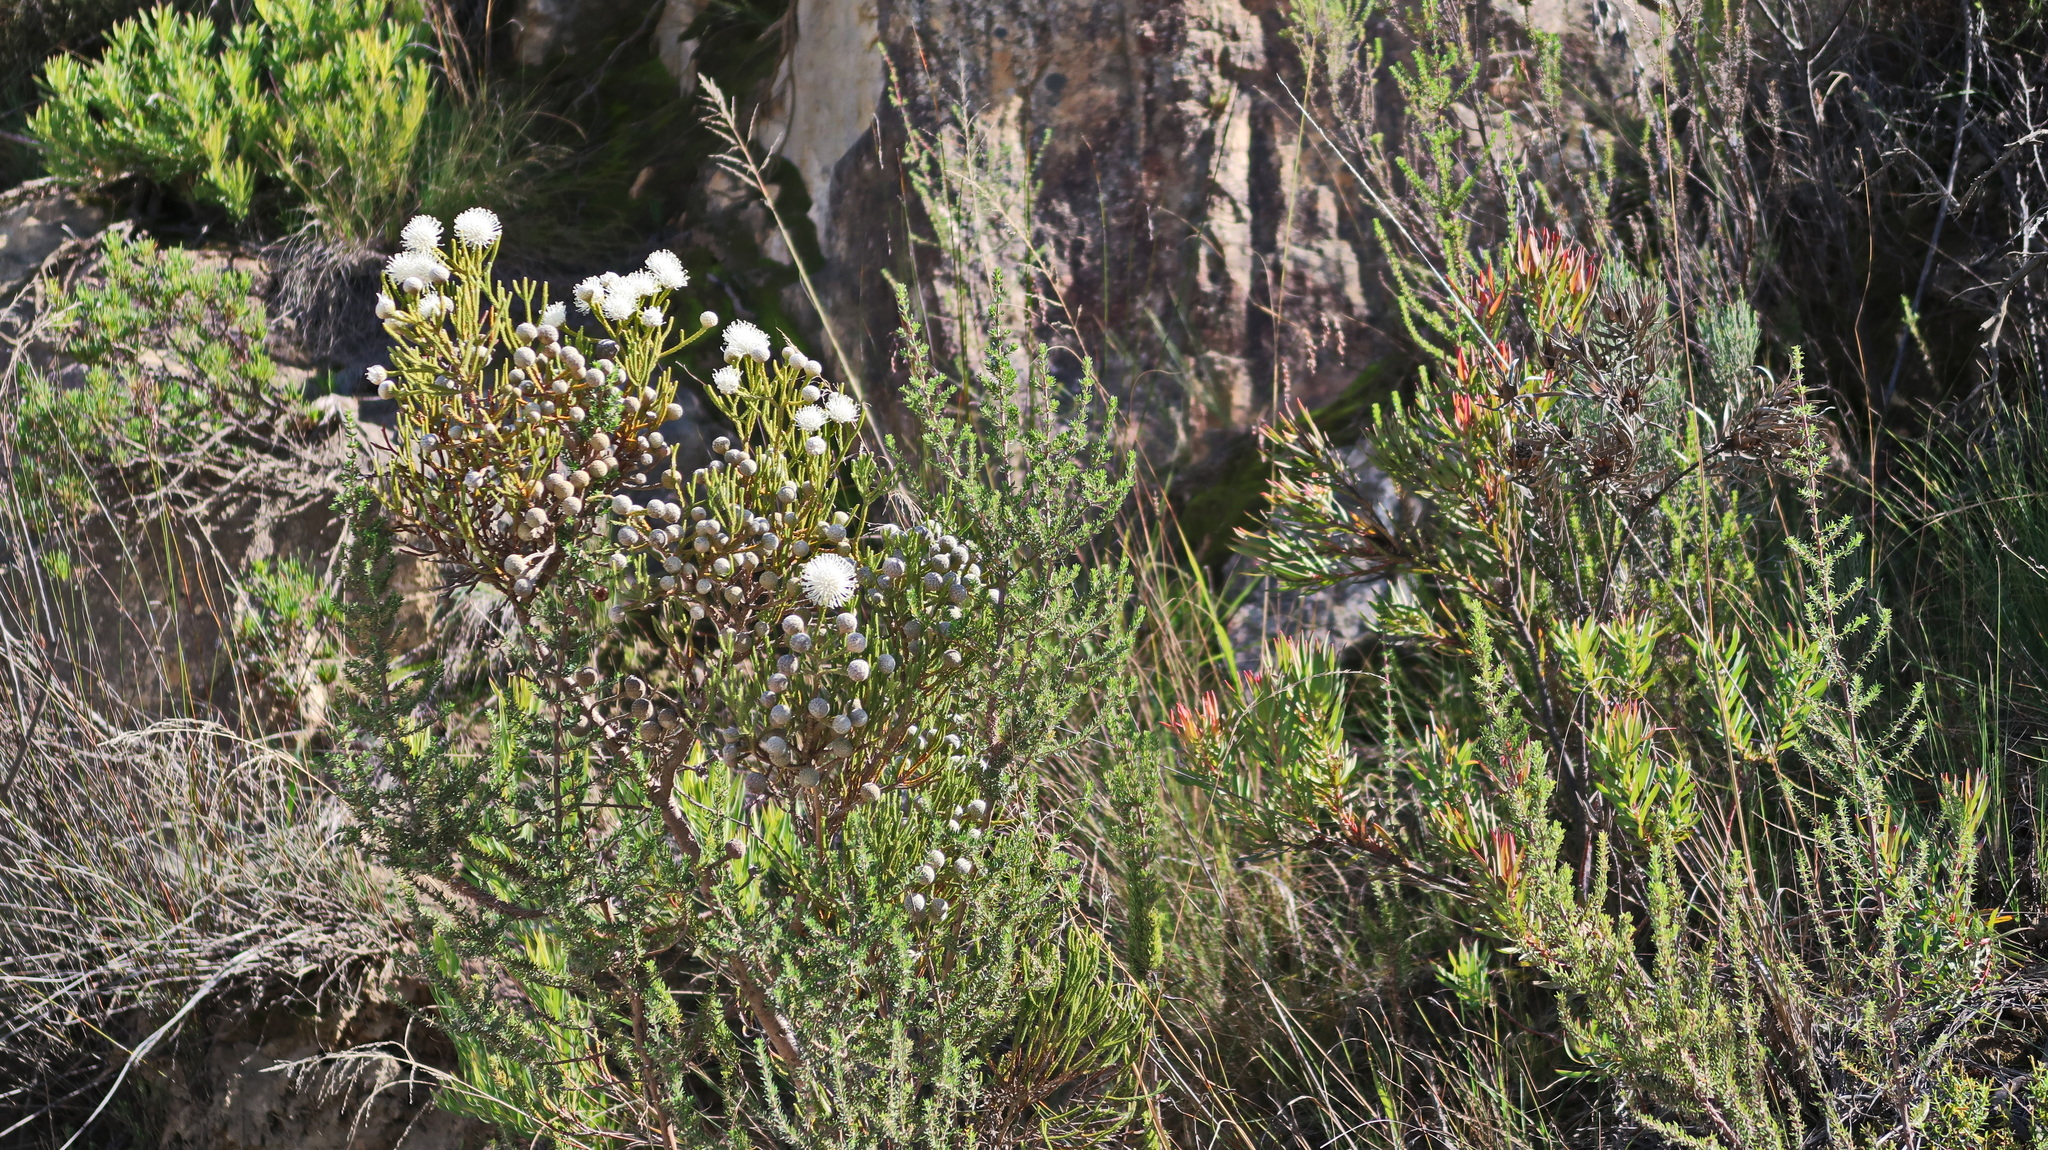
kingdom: Plantae
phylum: Tracheophyta
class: Magnoliopsida
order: Bruniales
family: Bruniaceae
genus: Brunia
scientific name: Brunia noduliflora
